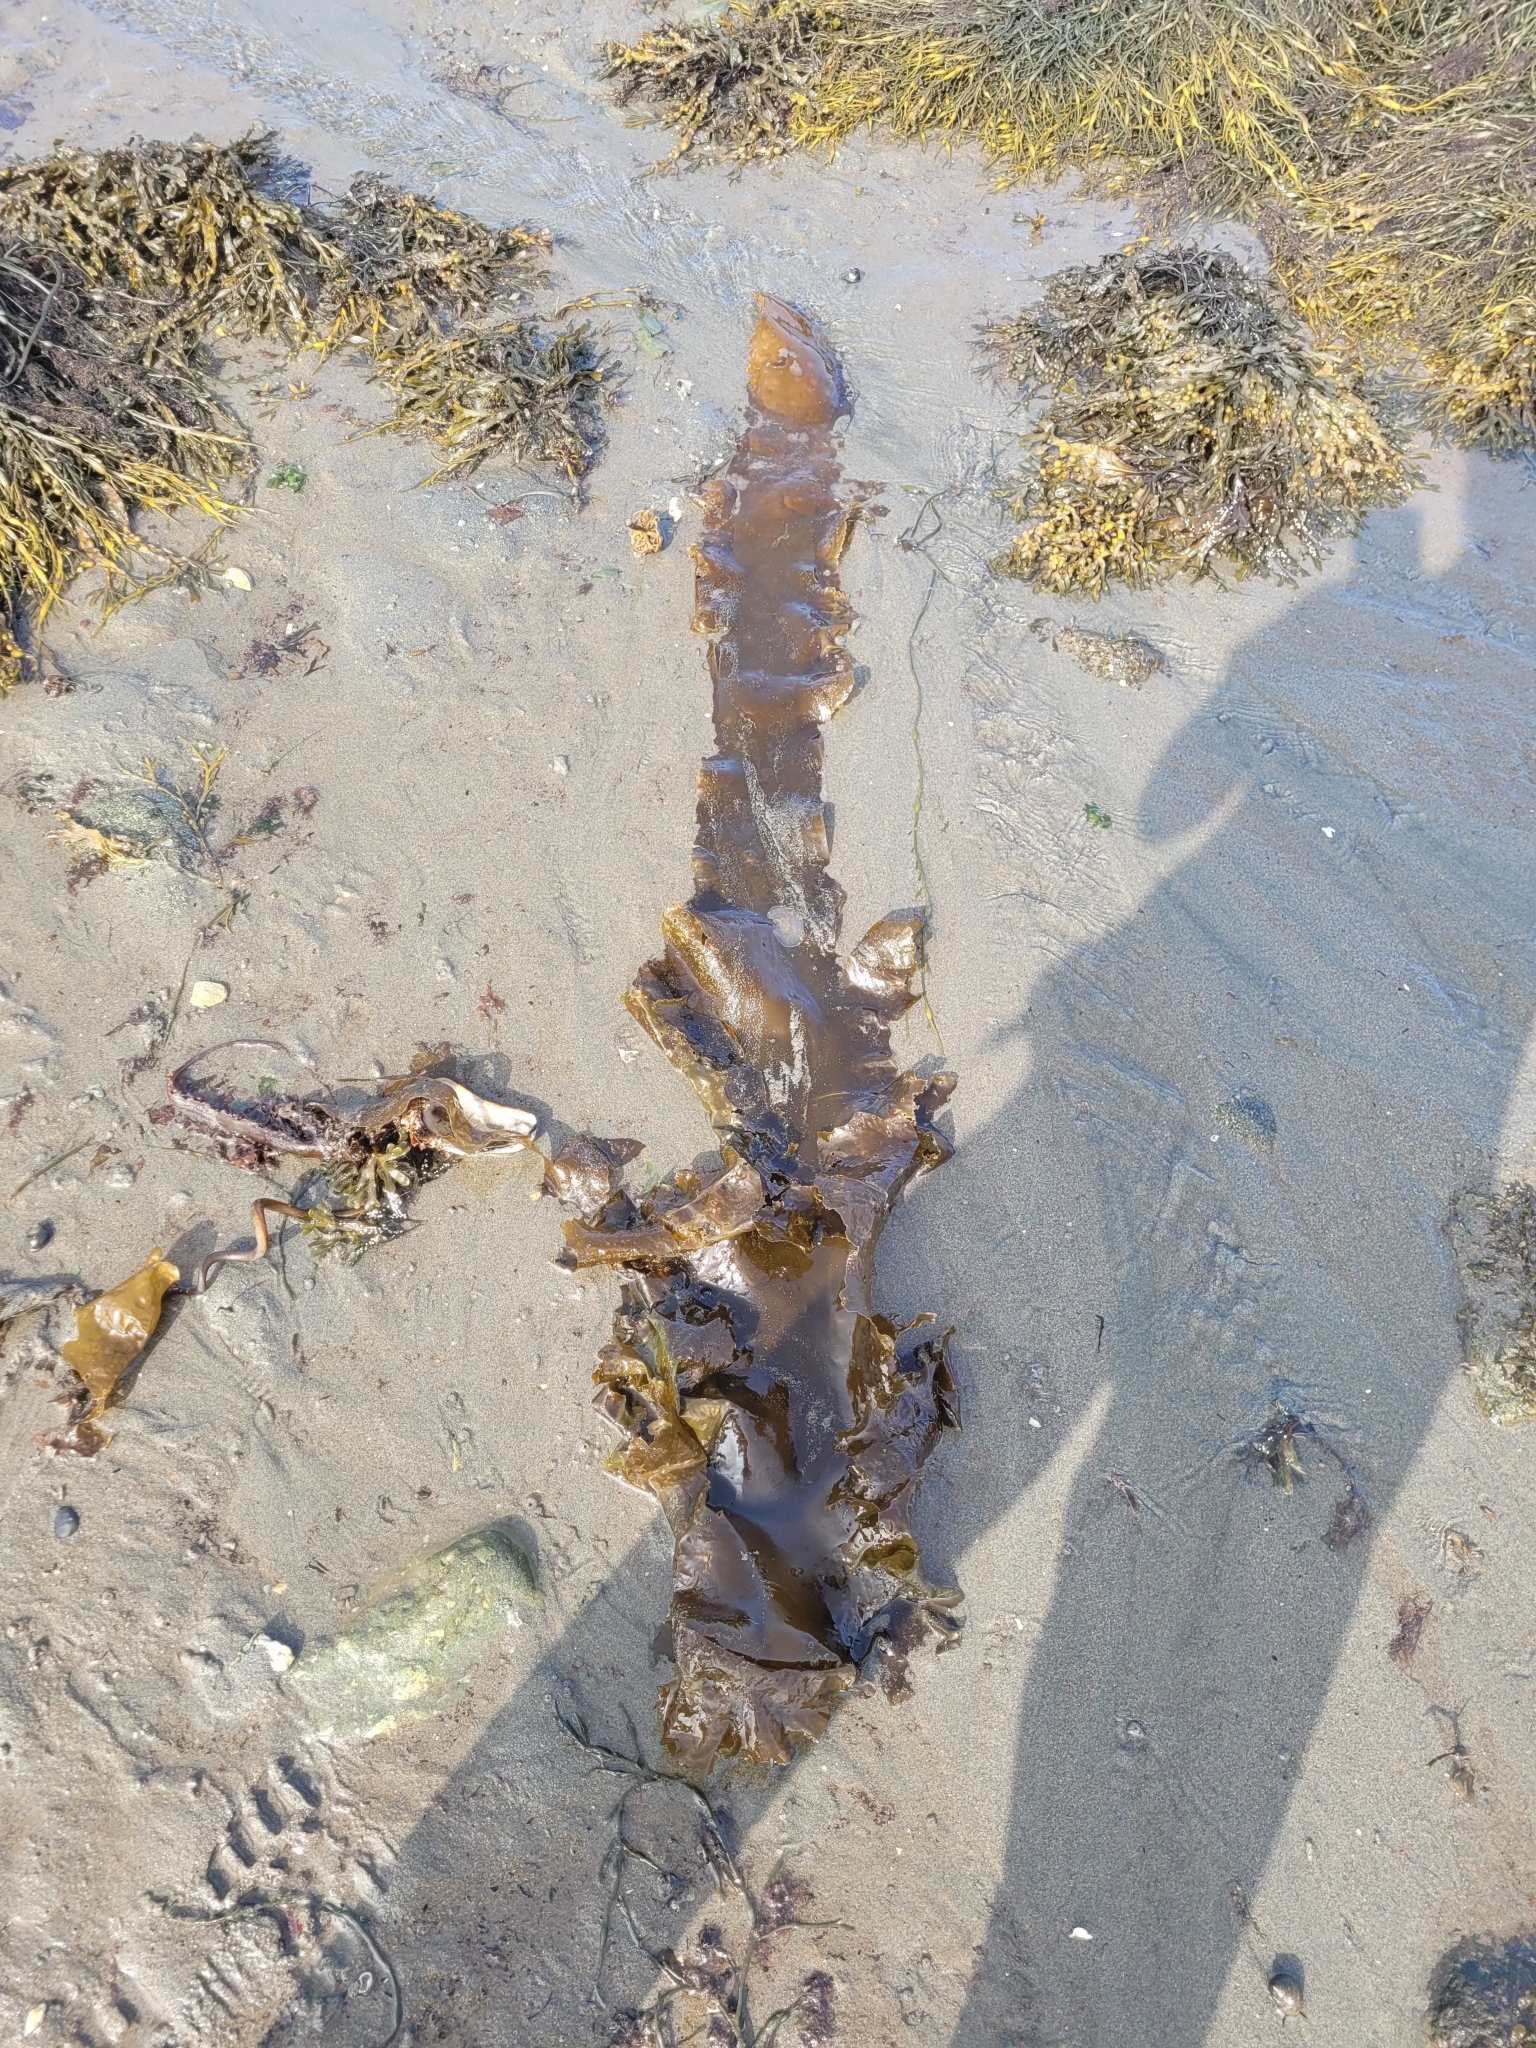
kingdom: Chromista
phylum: Ochrophyta
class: Phaeophyceae
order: Laminariales
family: Laminariaceae
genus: Saccharina
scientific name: Saccharina latissima
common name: Poor man's weather glass
